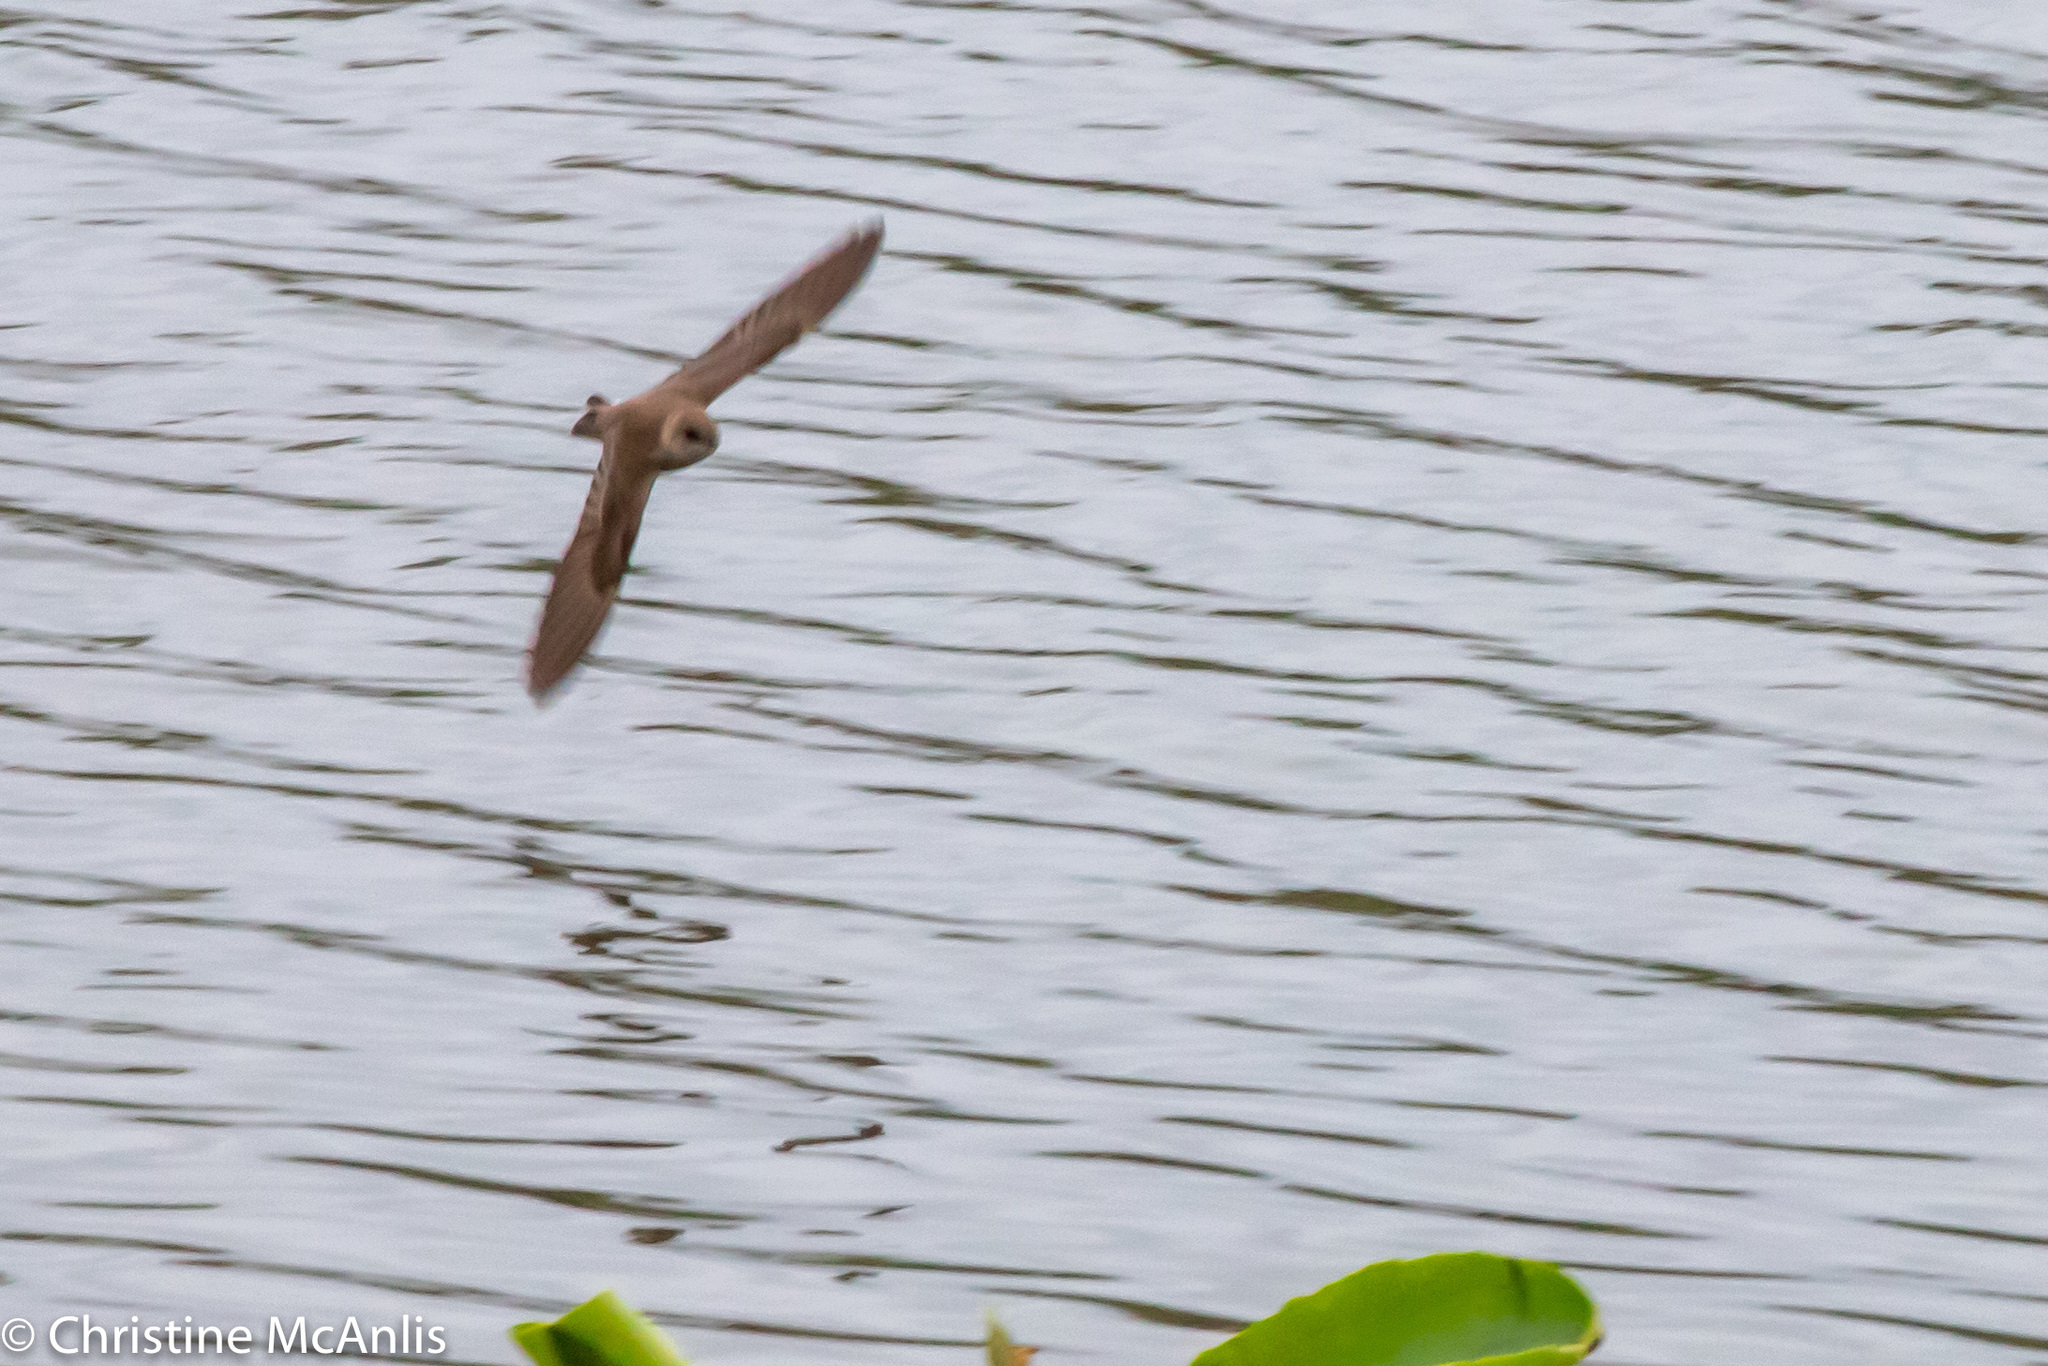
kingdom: Animalia
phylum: Chordata
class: Aves
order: Passeriformes
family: Hirundinidae
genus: Stelgidopteryx
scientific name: Stelgidopteryx serripennis
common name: Northern rough-winged swallow
